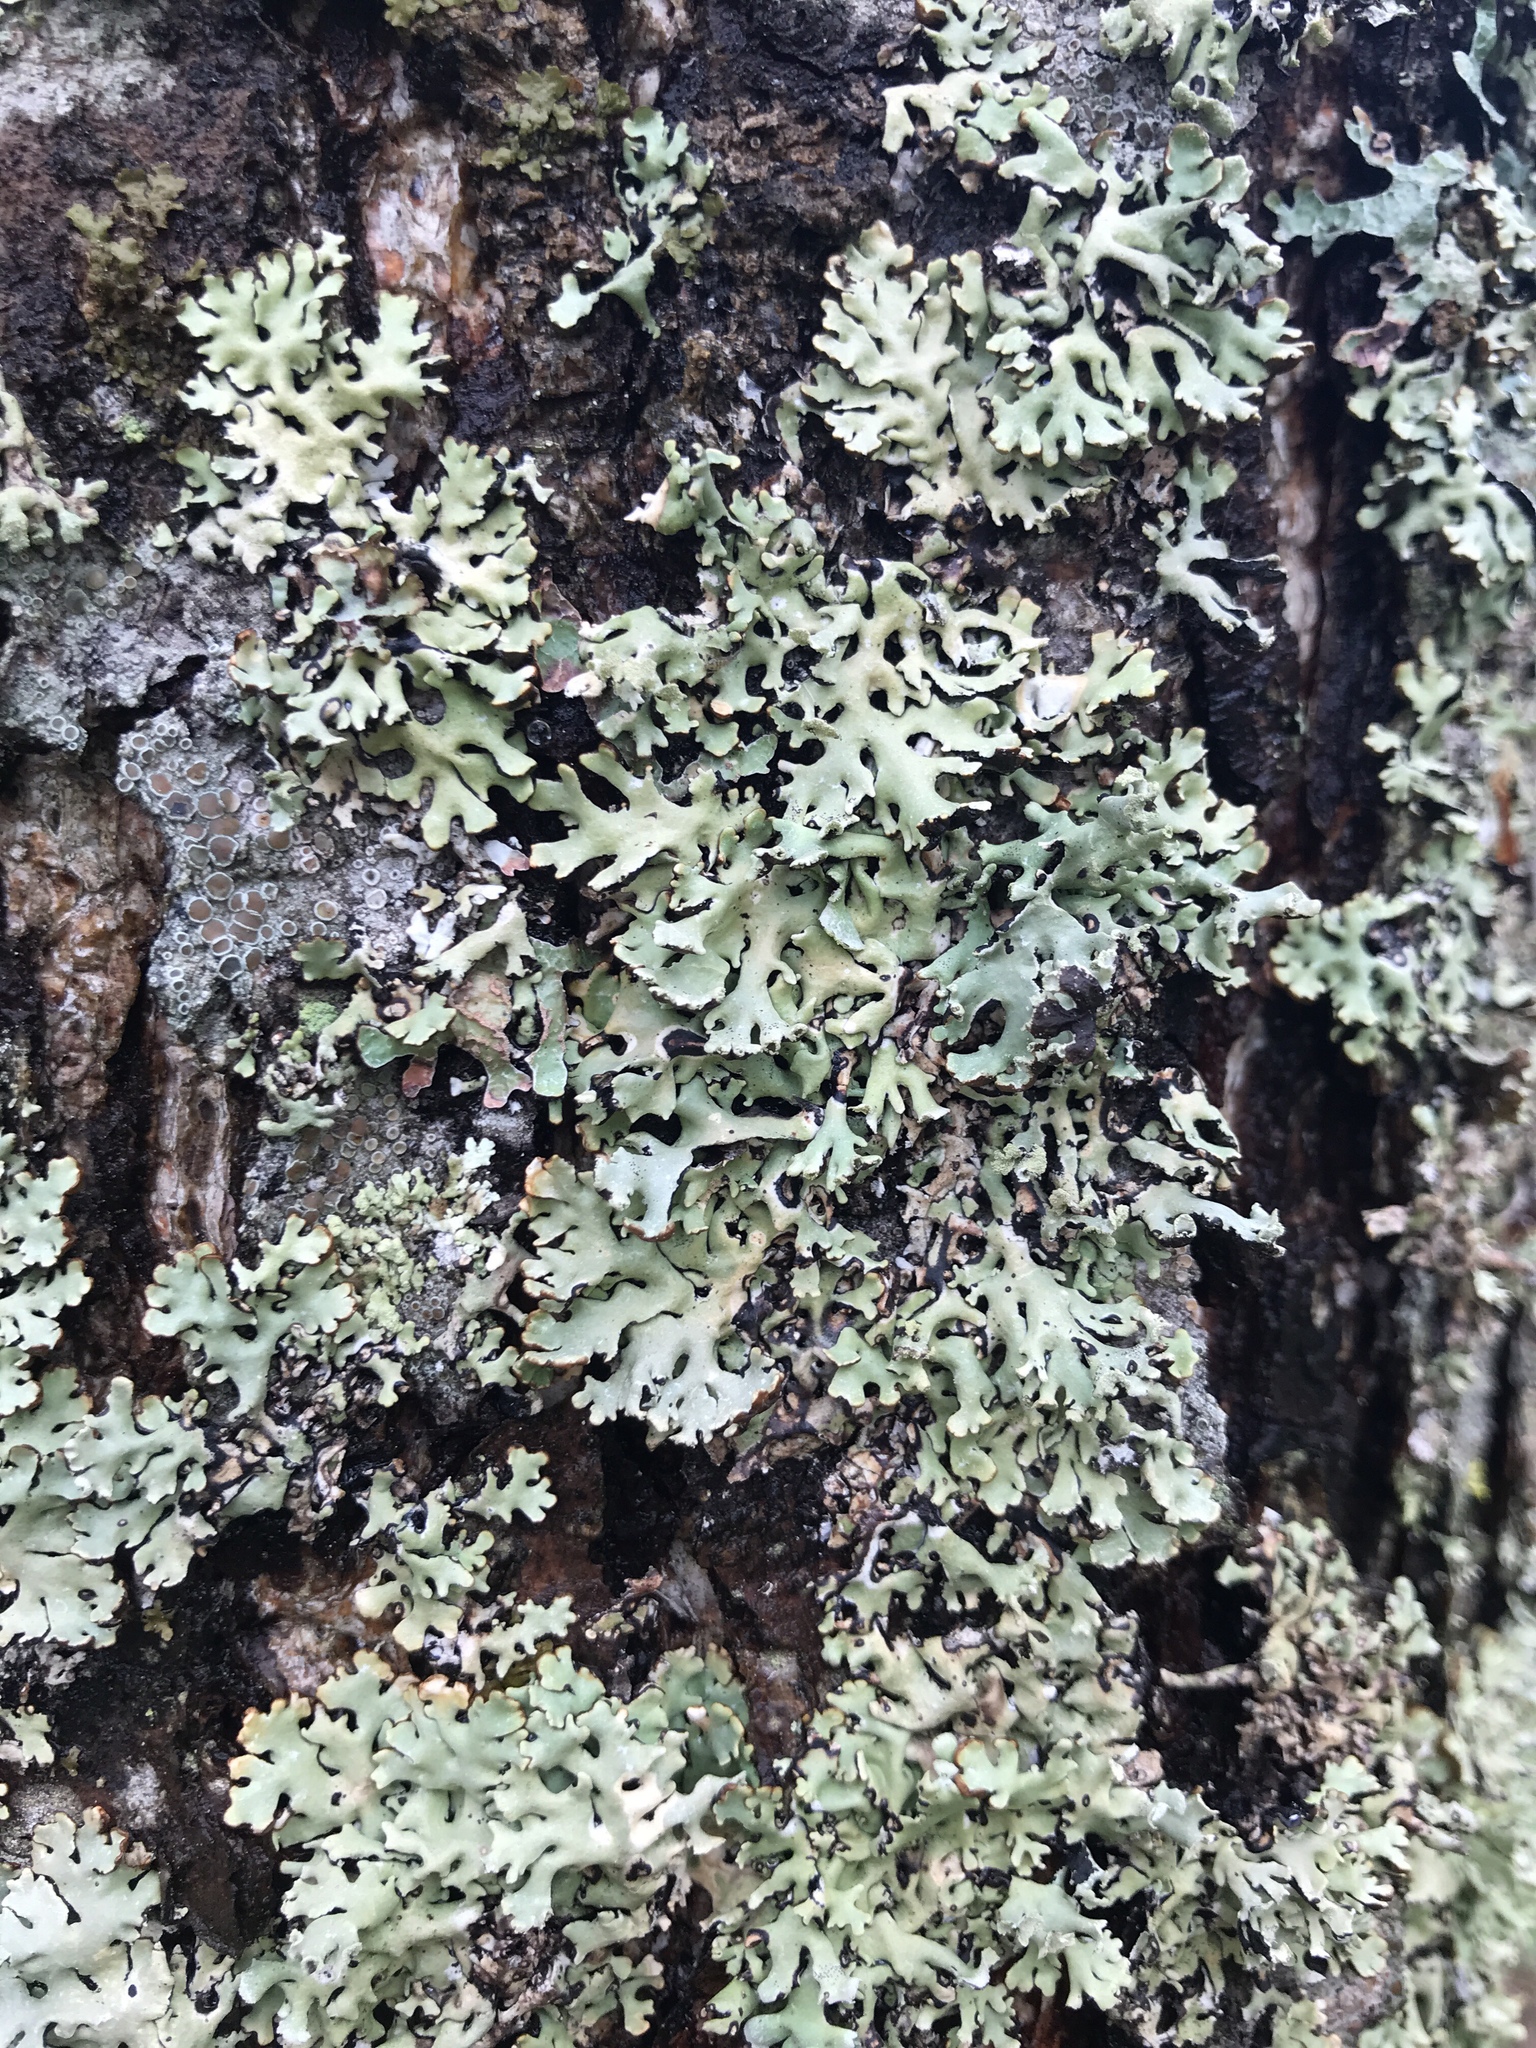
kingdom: Fungi
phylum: Ascomycota
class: Lecanoromycetes
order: Lecanorales
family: Parmeliaceae
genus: Hypogymnia
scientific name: Hypogymnia physodes
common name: Dark crottle
